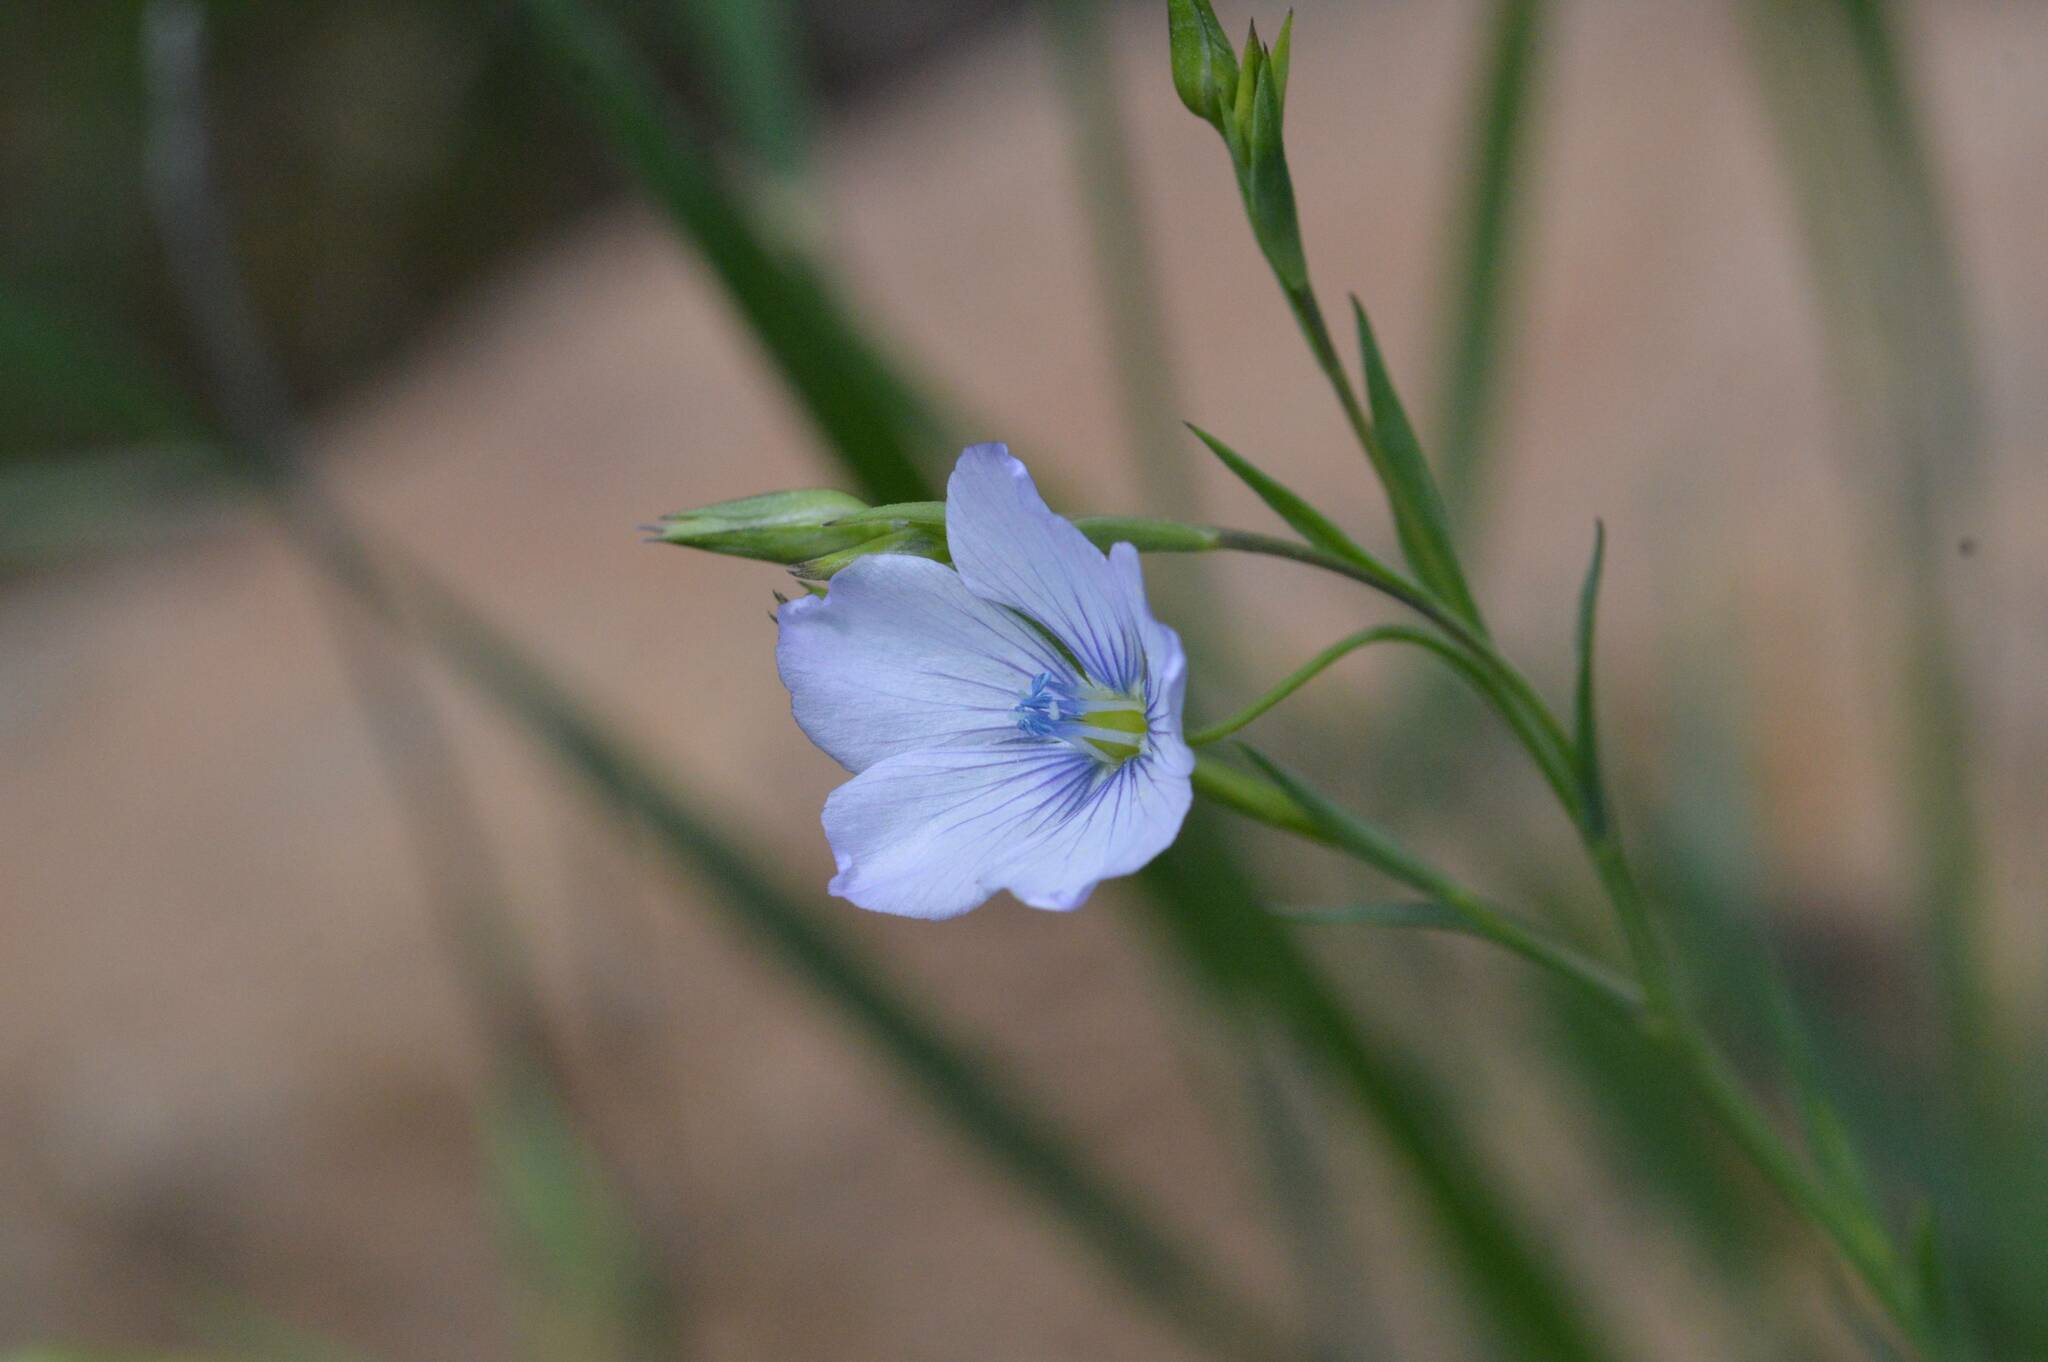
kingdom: Plantae
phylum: Tracheophyta
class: Magnoliopsida
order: Malpighiales
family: Linaceae
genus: Linum
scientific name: Linum usitatissimum
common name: Flax
